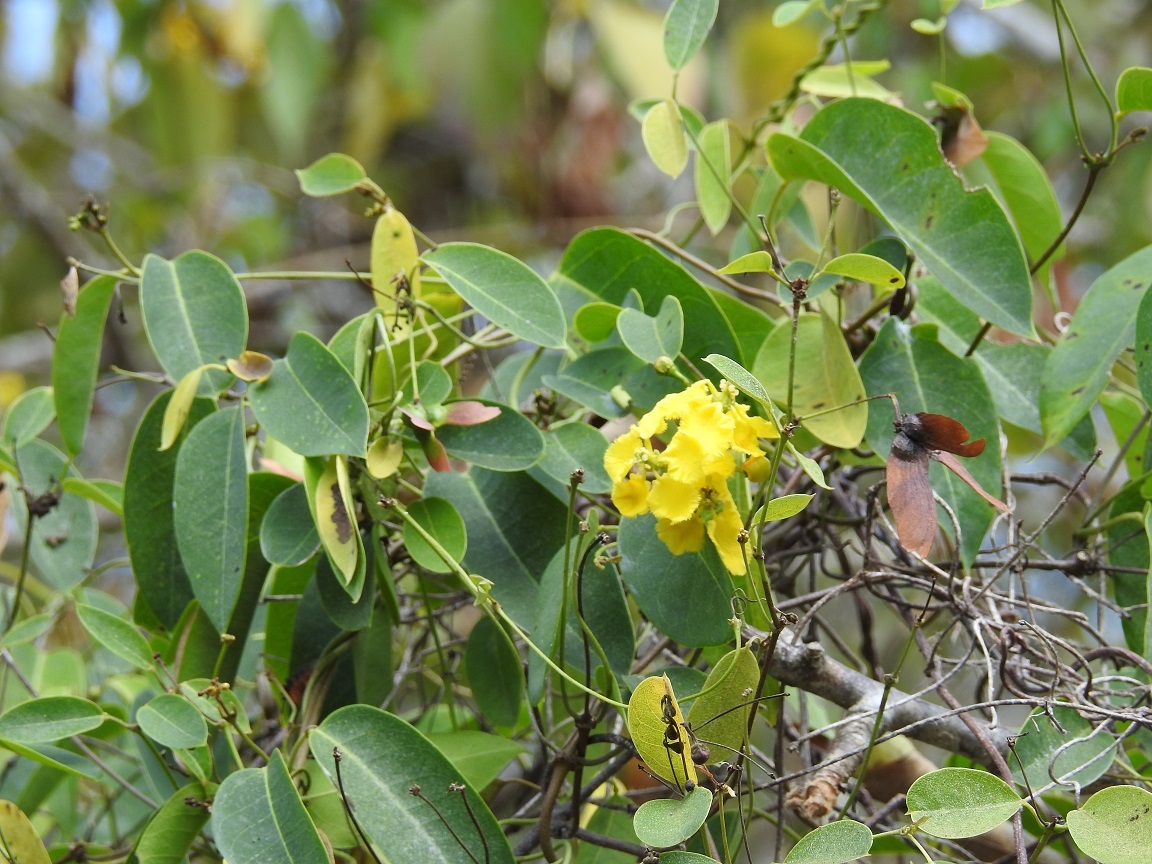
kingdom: Plantae
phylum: Tracheophyta
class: Magnoliopsida
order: Malpighiales
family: Malpighiaceae
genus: Stigmaphyllon
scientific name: Stigmaphyllon ellipticum
